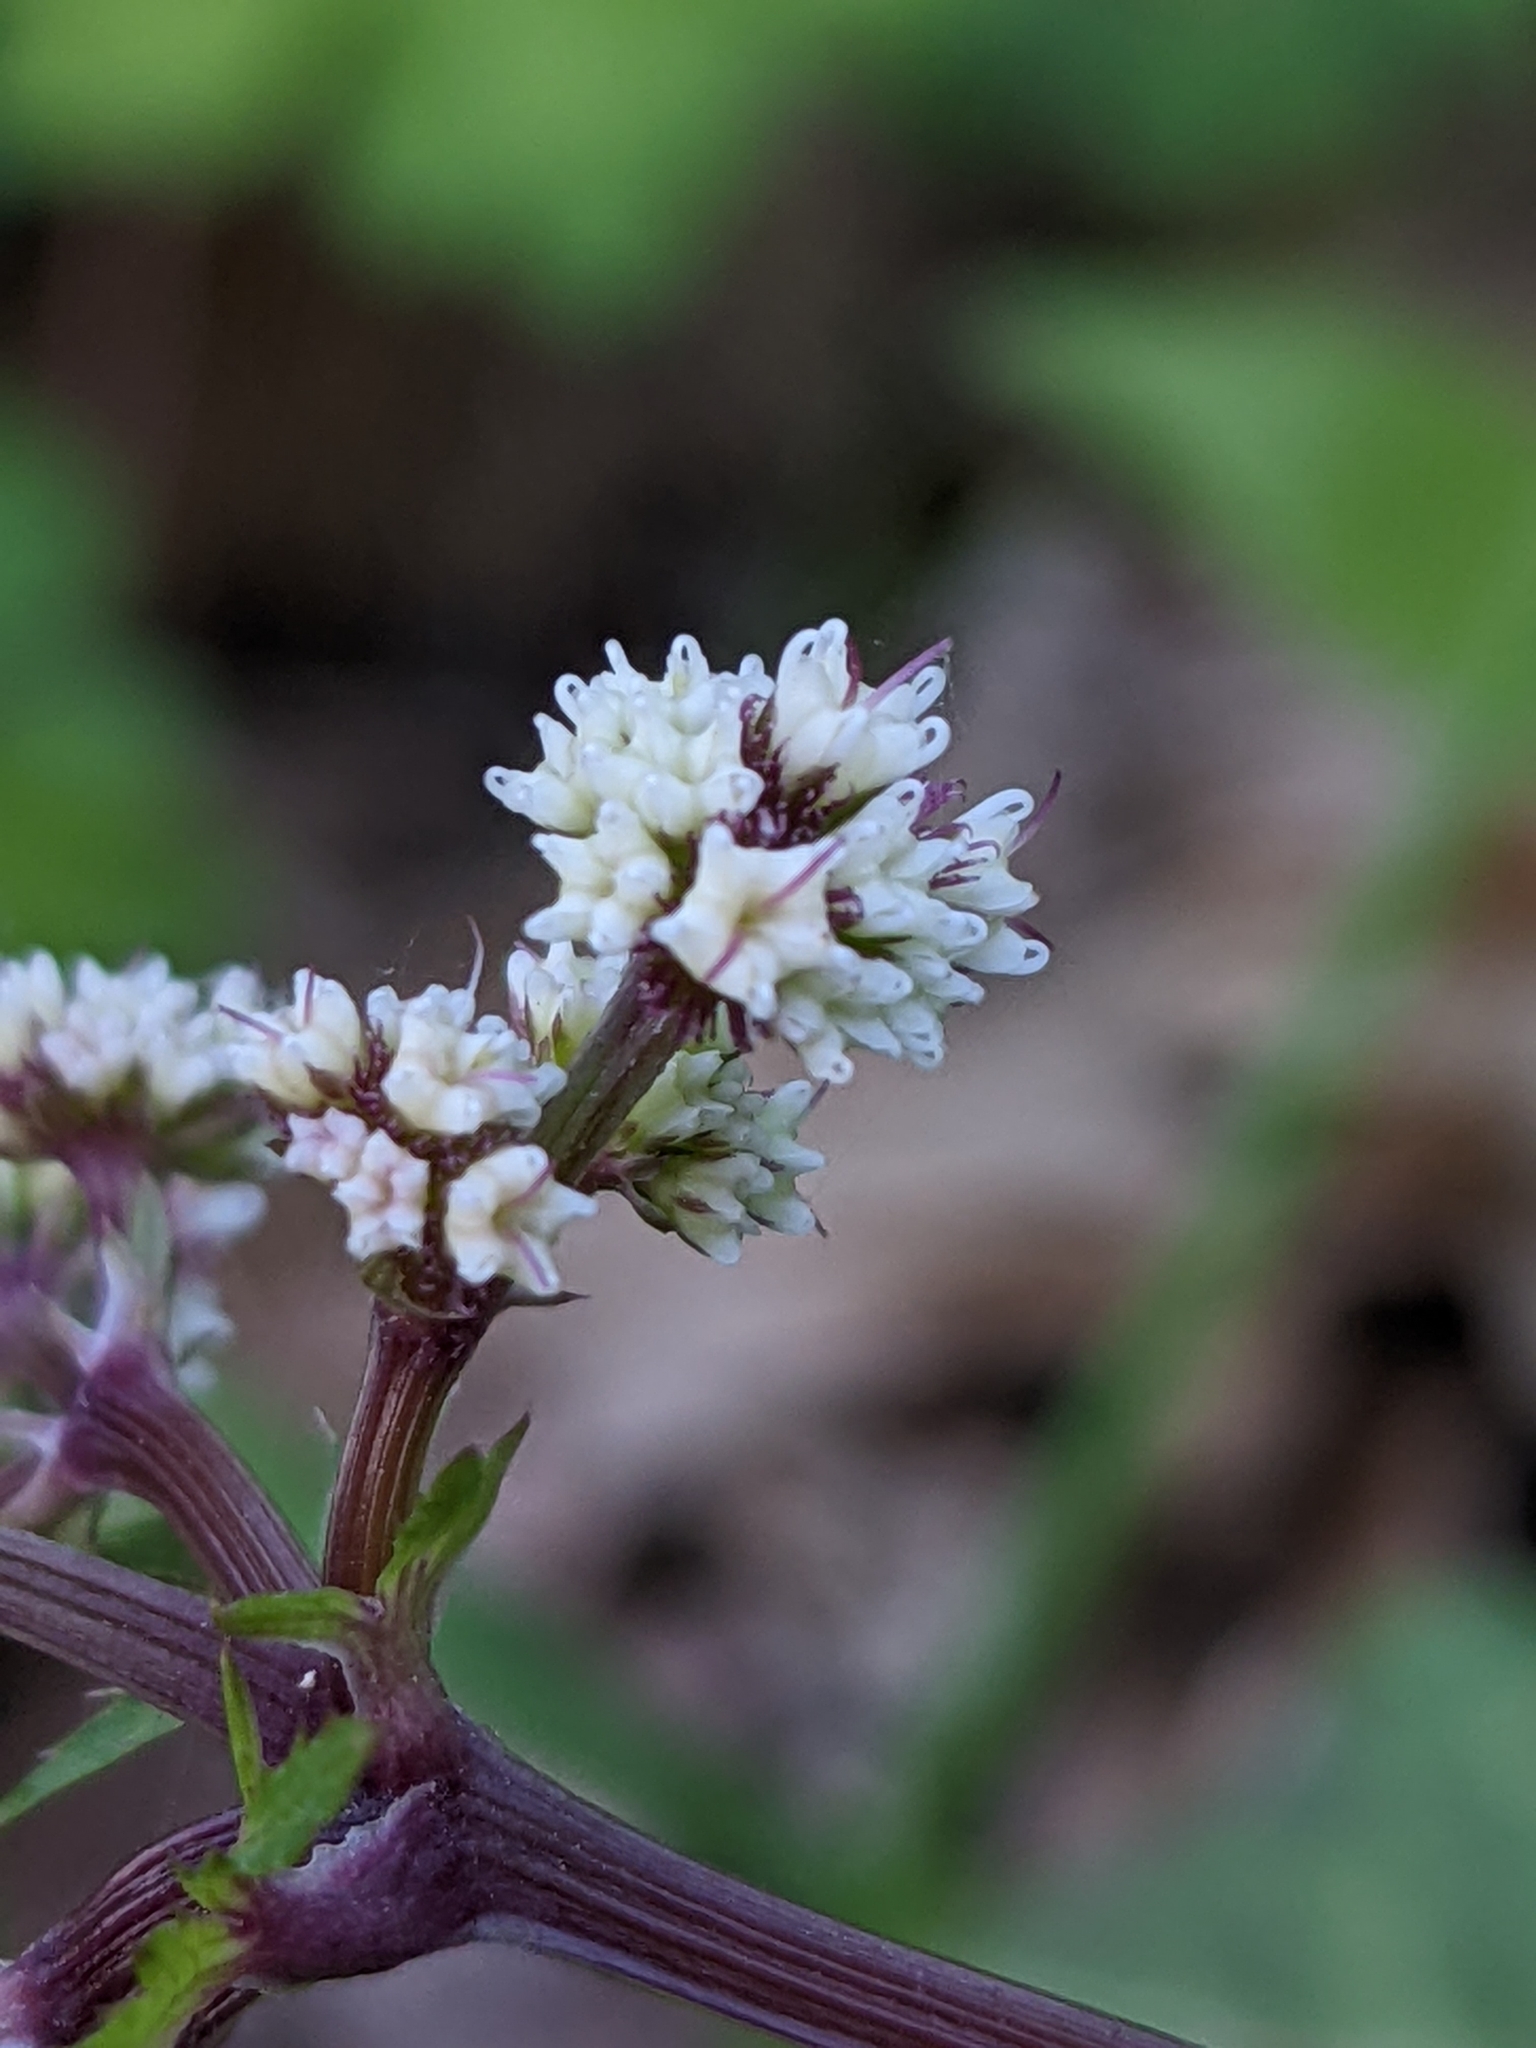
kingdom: Plantae
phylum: Tracheophyta
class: Magnoliopsida
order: Apiales
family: Apiaceae
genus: Sanicula
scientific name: Sanicula europaea
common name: Sanicle
